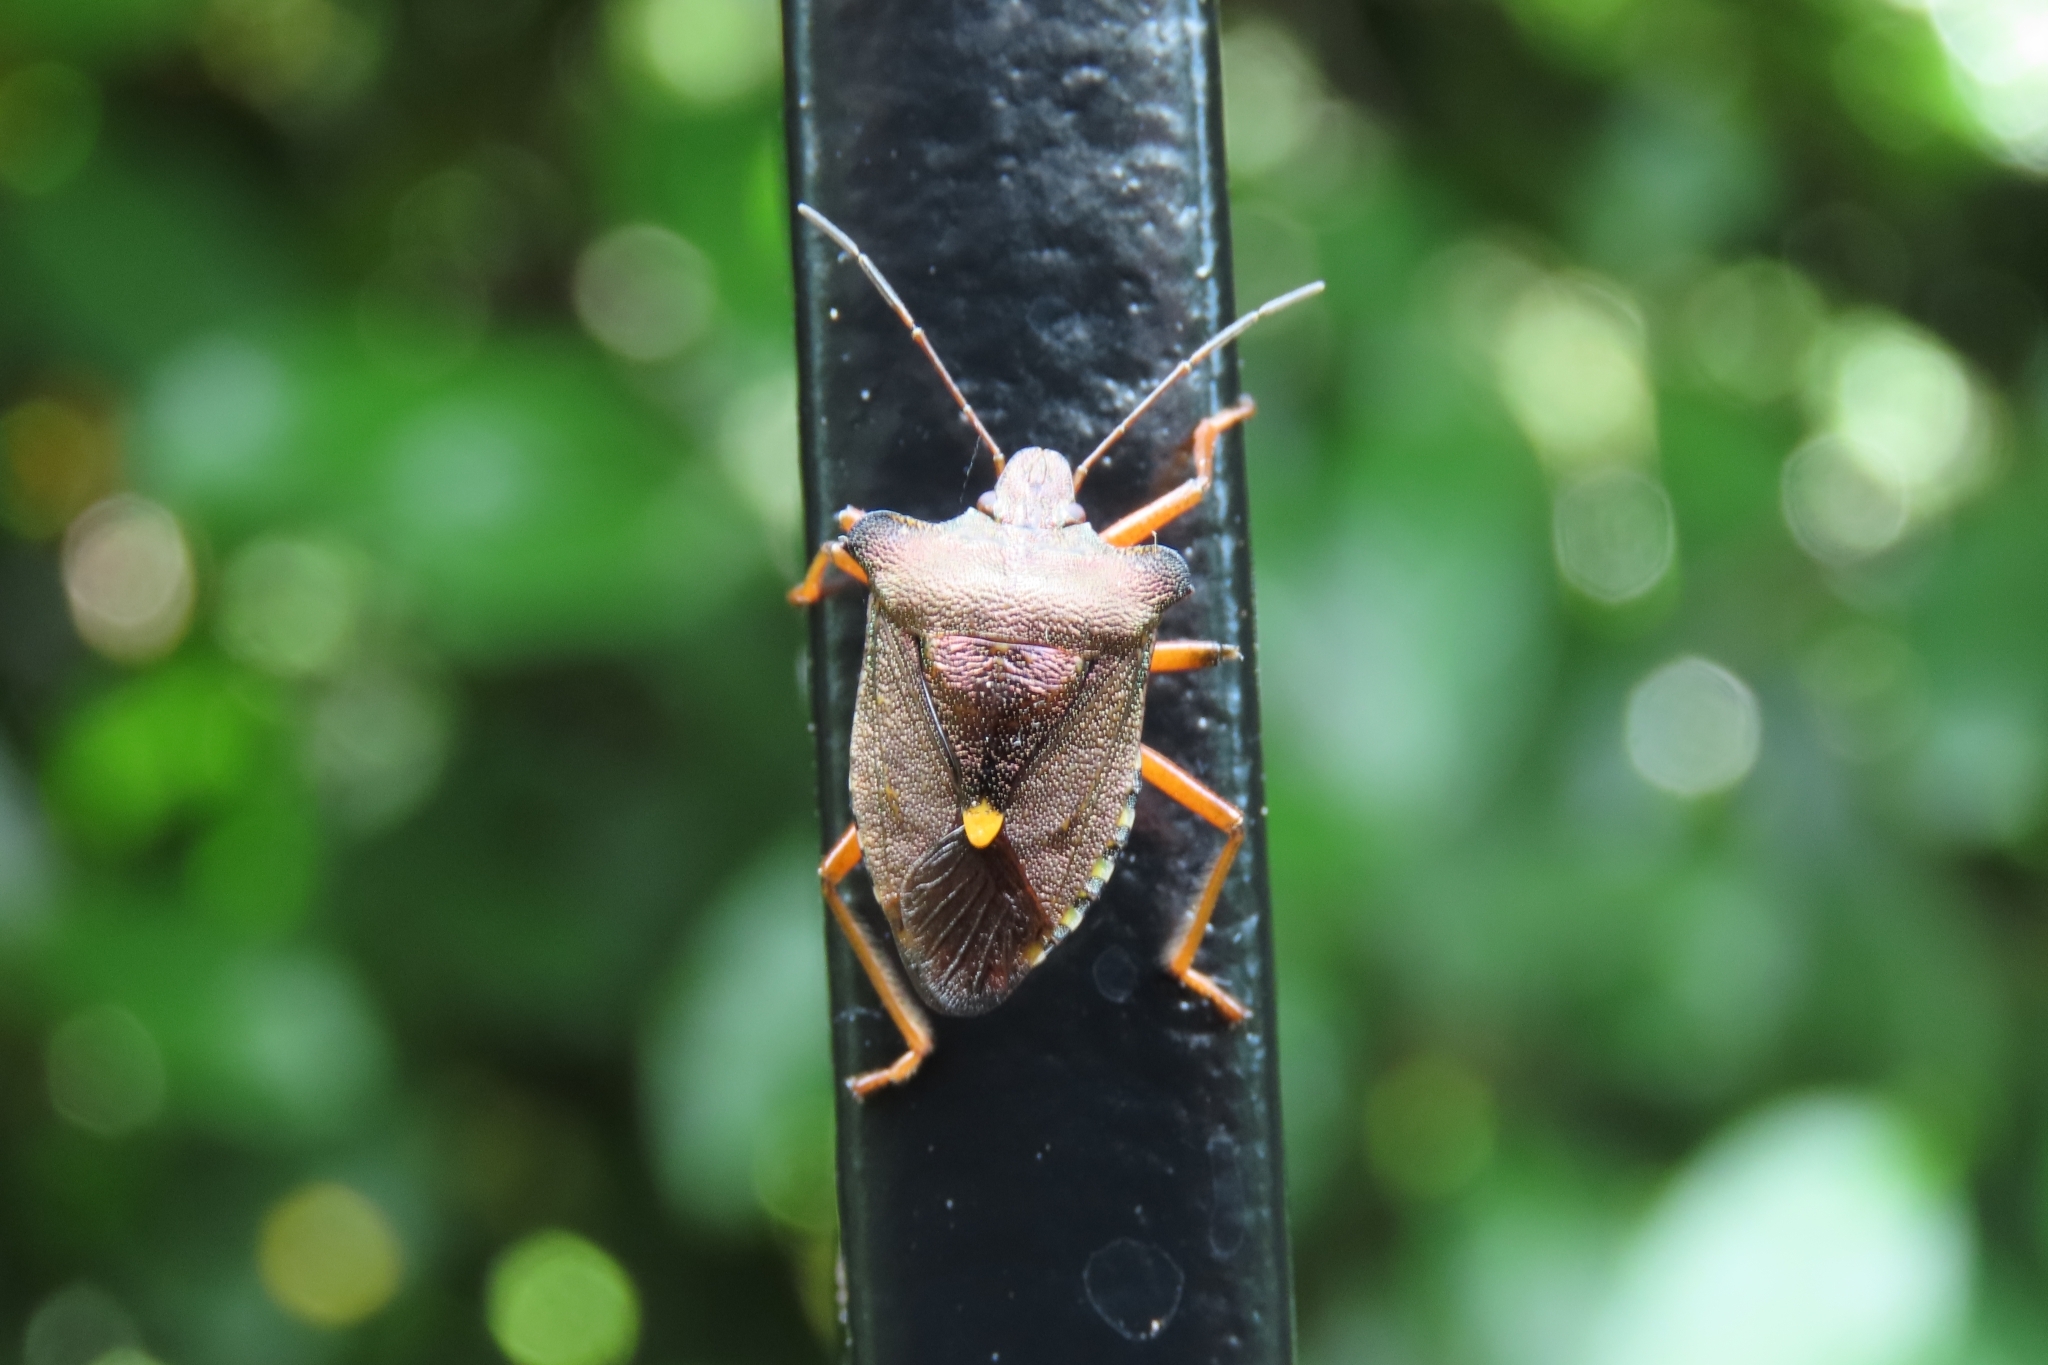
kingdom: Animalia
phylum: Arthropoda
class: Insecta
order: Hemiptera
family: Pentatomidae
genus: Pentatoma
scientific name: Pentatoma rufipes
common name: Forest bug
